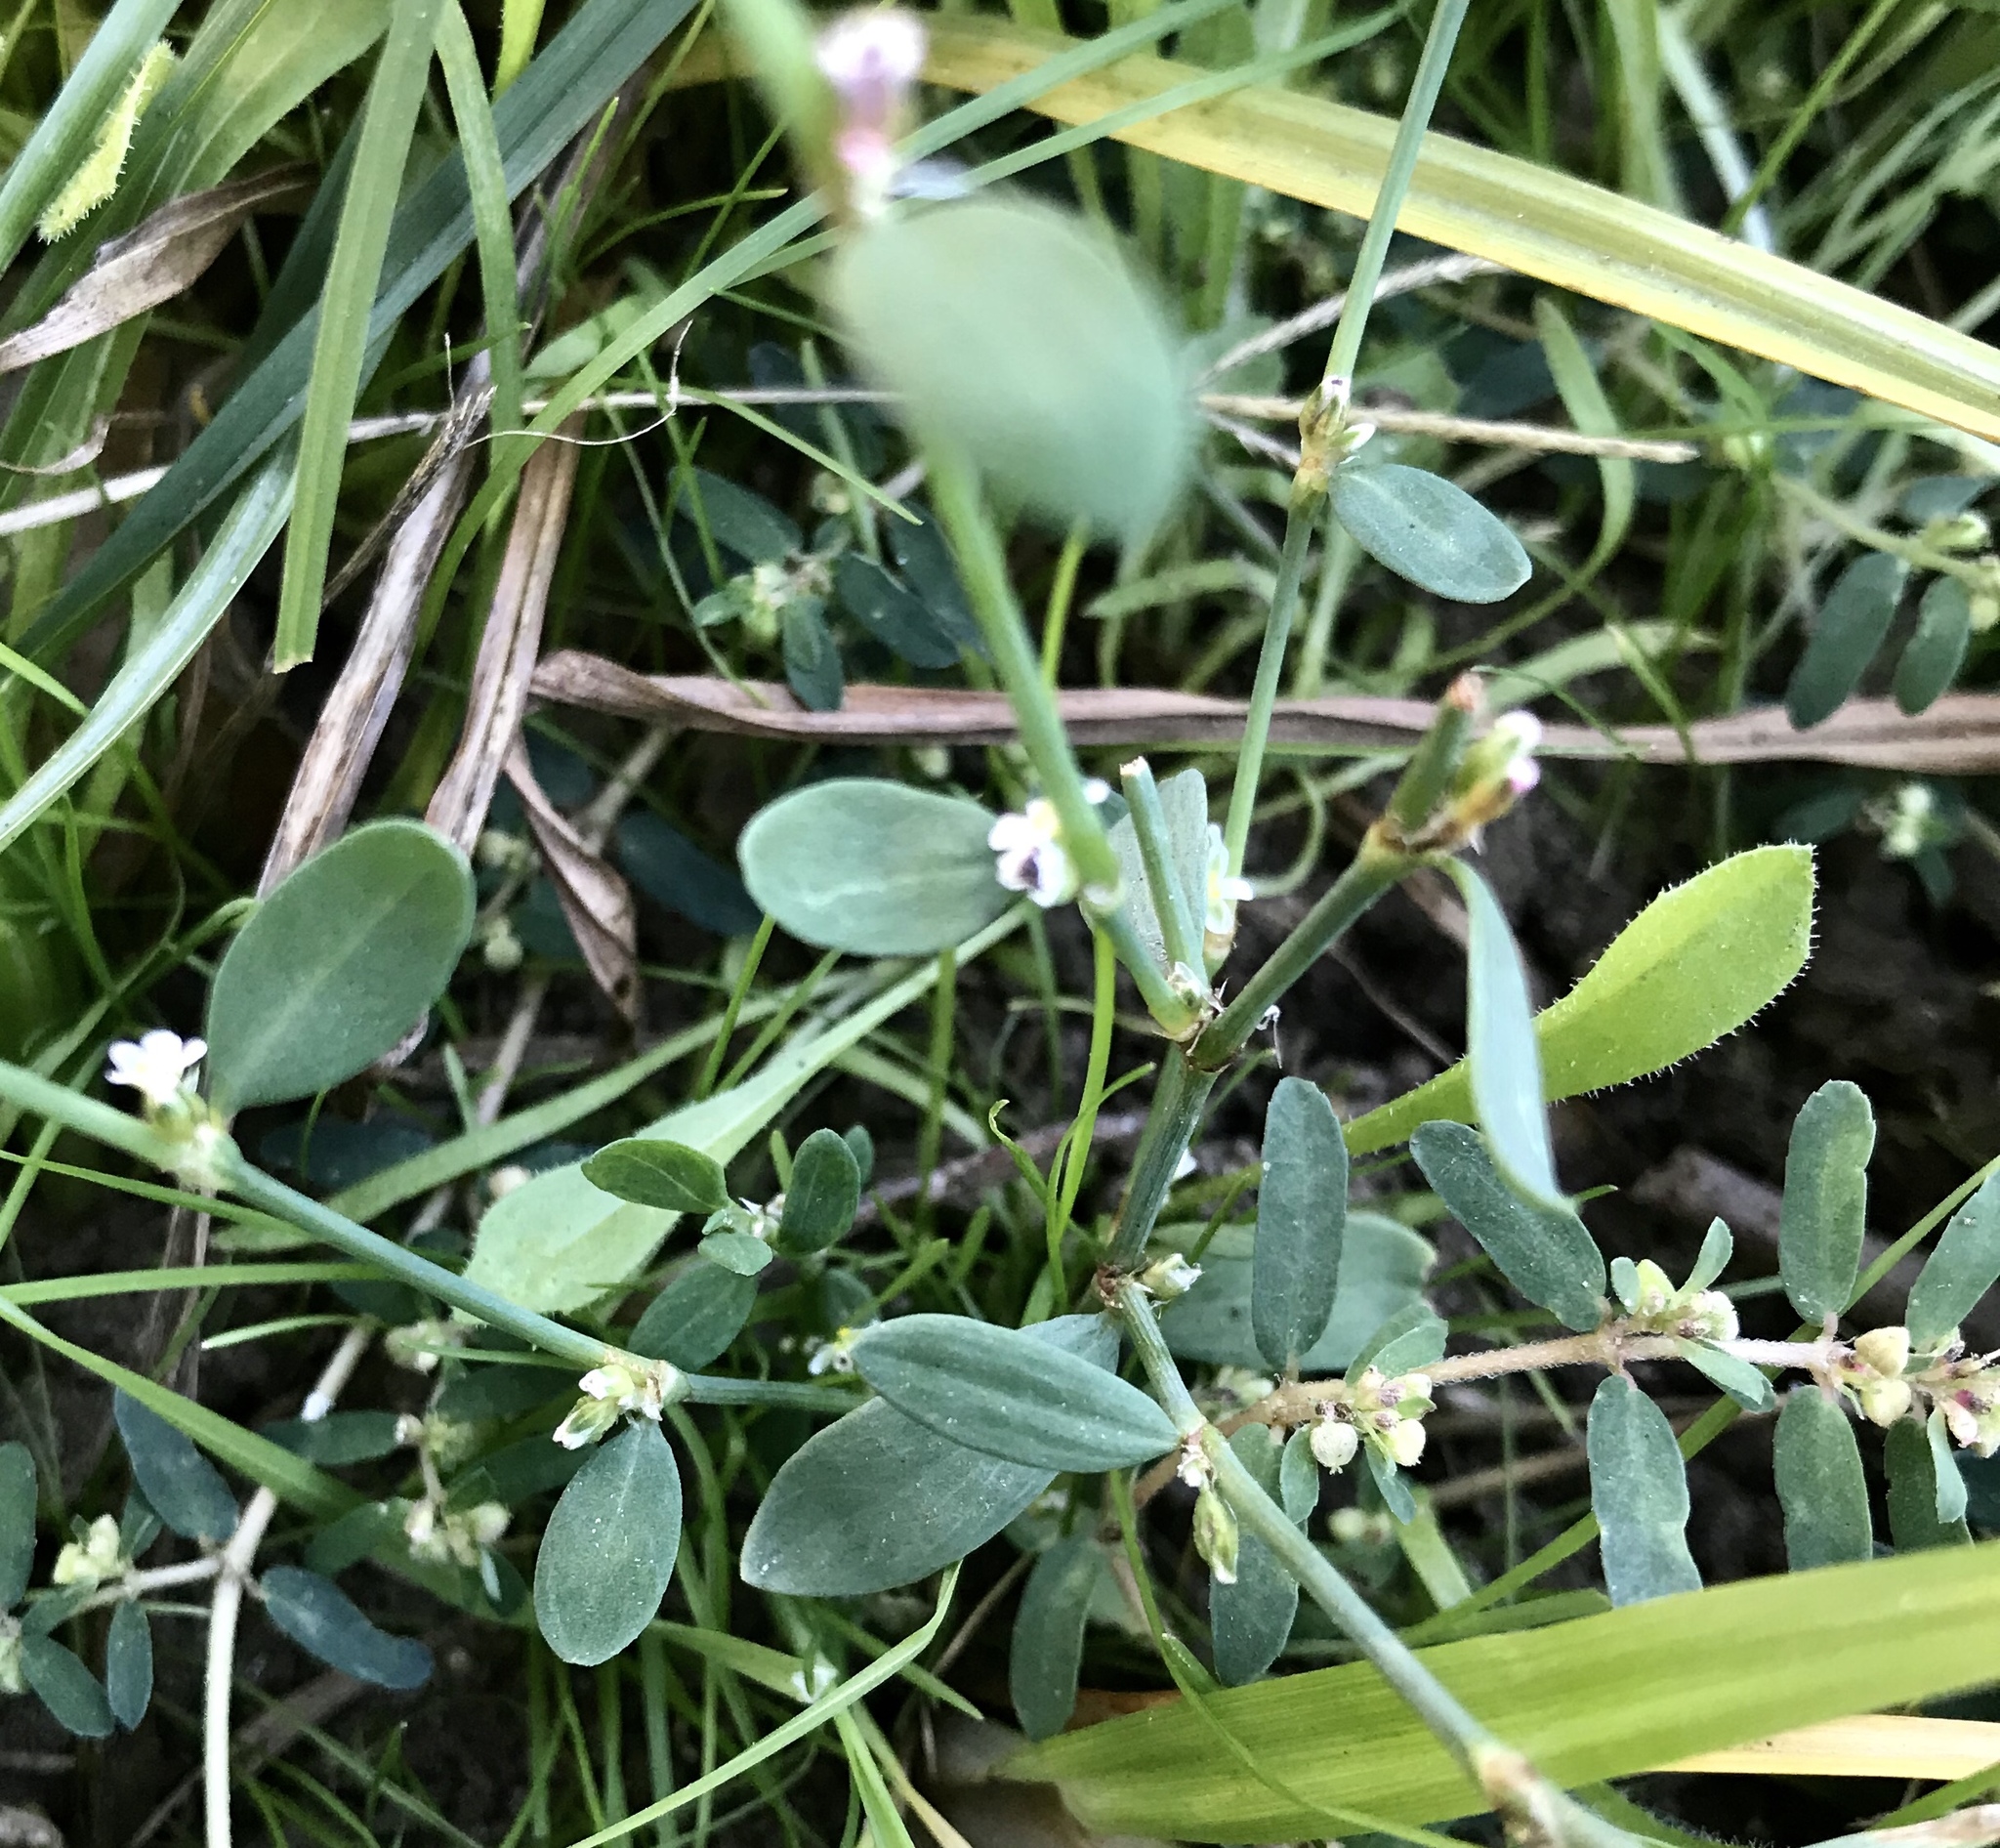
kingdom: Plantae
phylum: Tracheophyta
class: Magnoliopsida
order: Caryophyllales
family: Polygonaceae
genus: Polygonum
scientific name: Polygonum aviculare
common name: Prostrate knotweed
